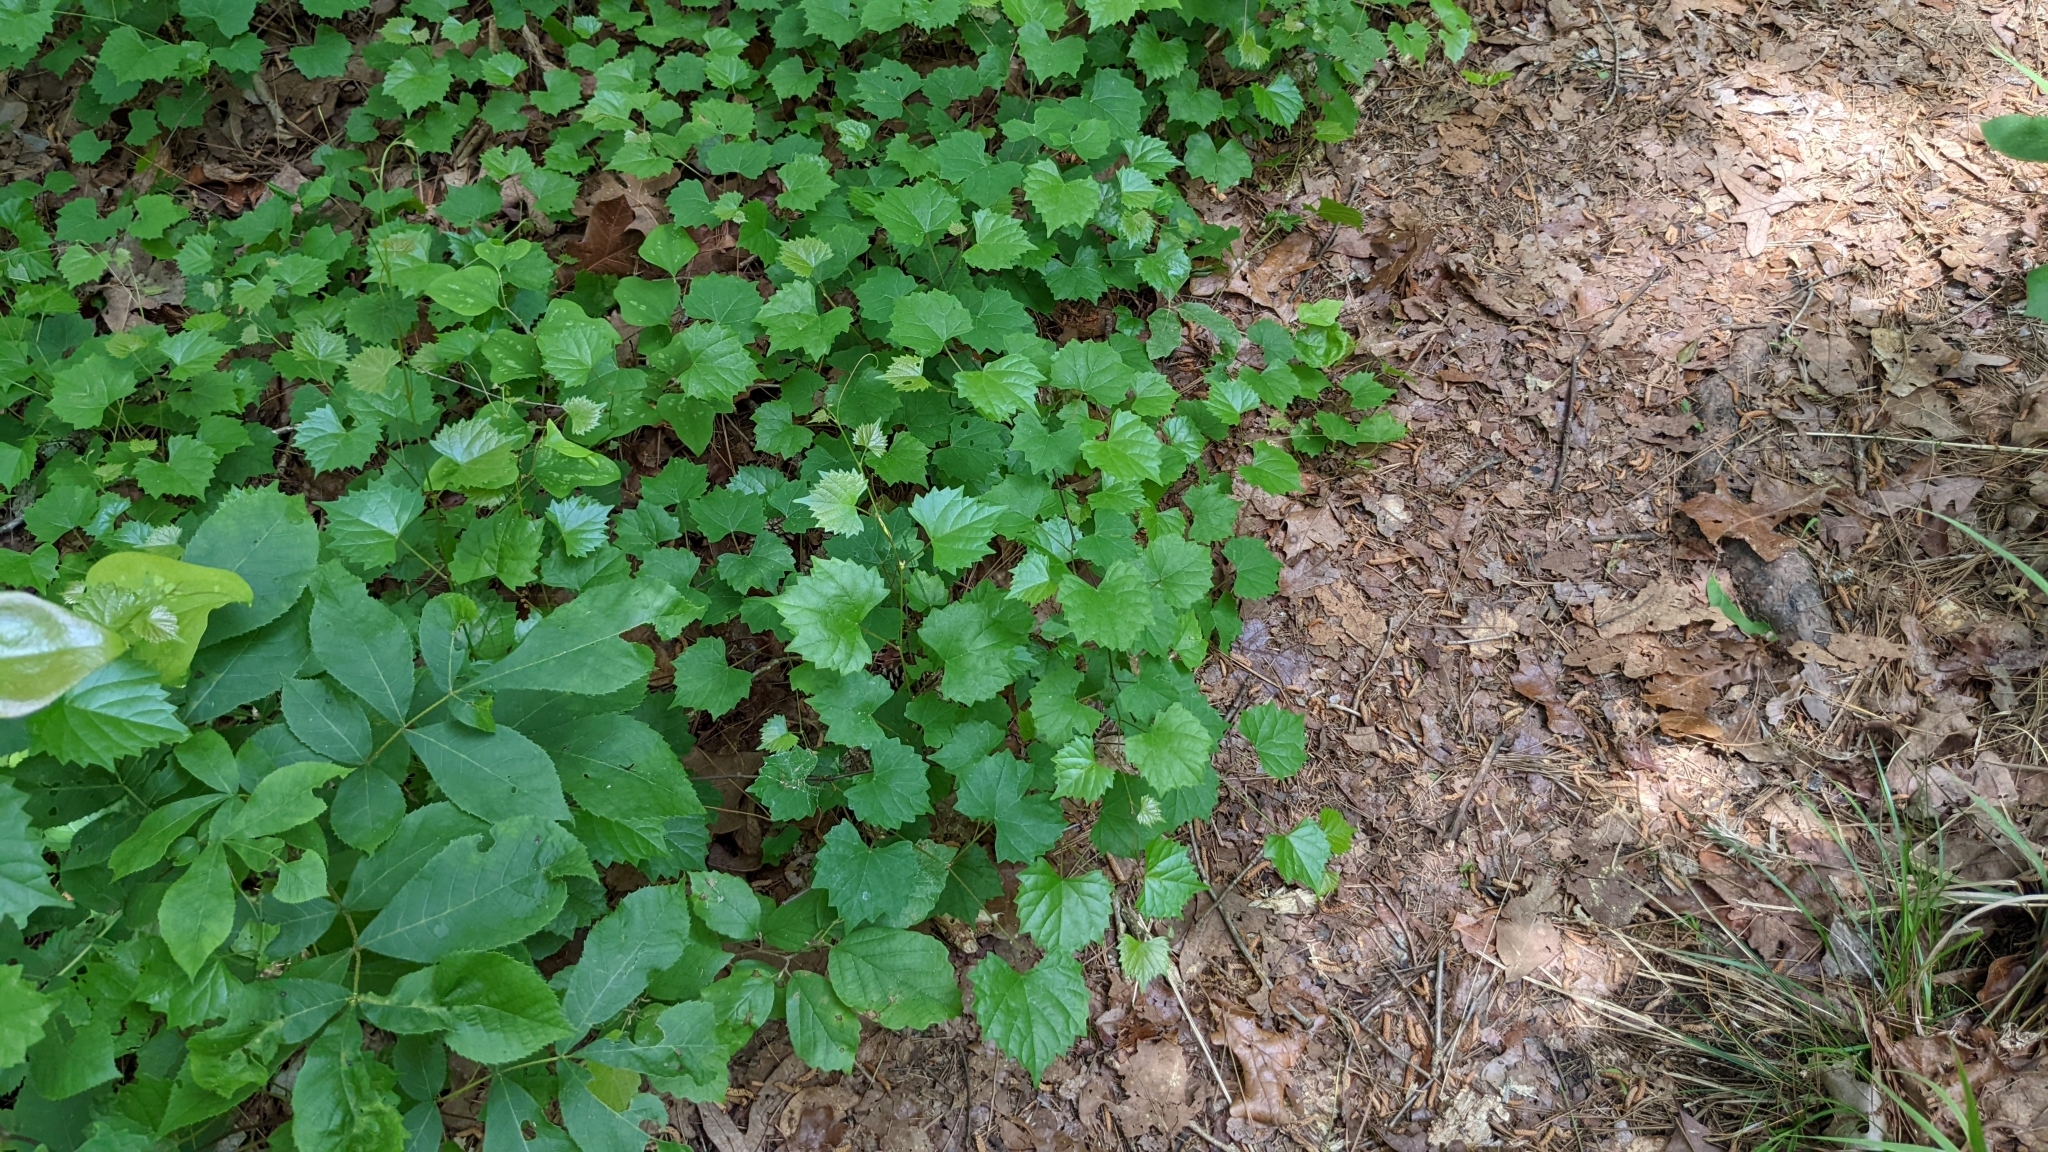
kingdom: Plantae
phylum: Tracheophyta
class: Magnoliopsida
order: Vitales
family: Vitaceae
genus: Vitis
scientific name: Vitis rotundifolia
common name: Muscadine grape
